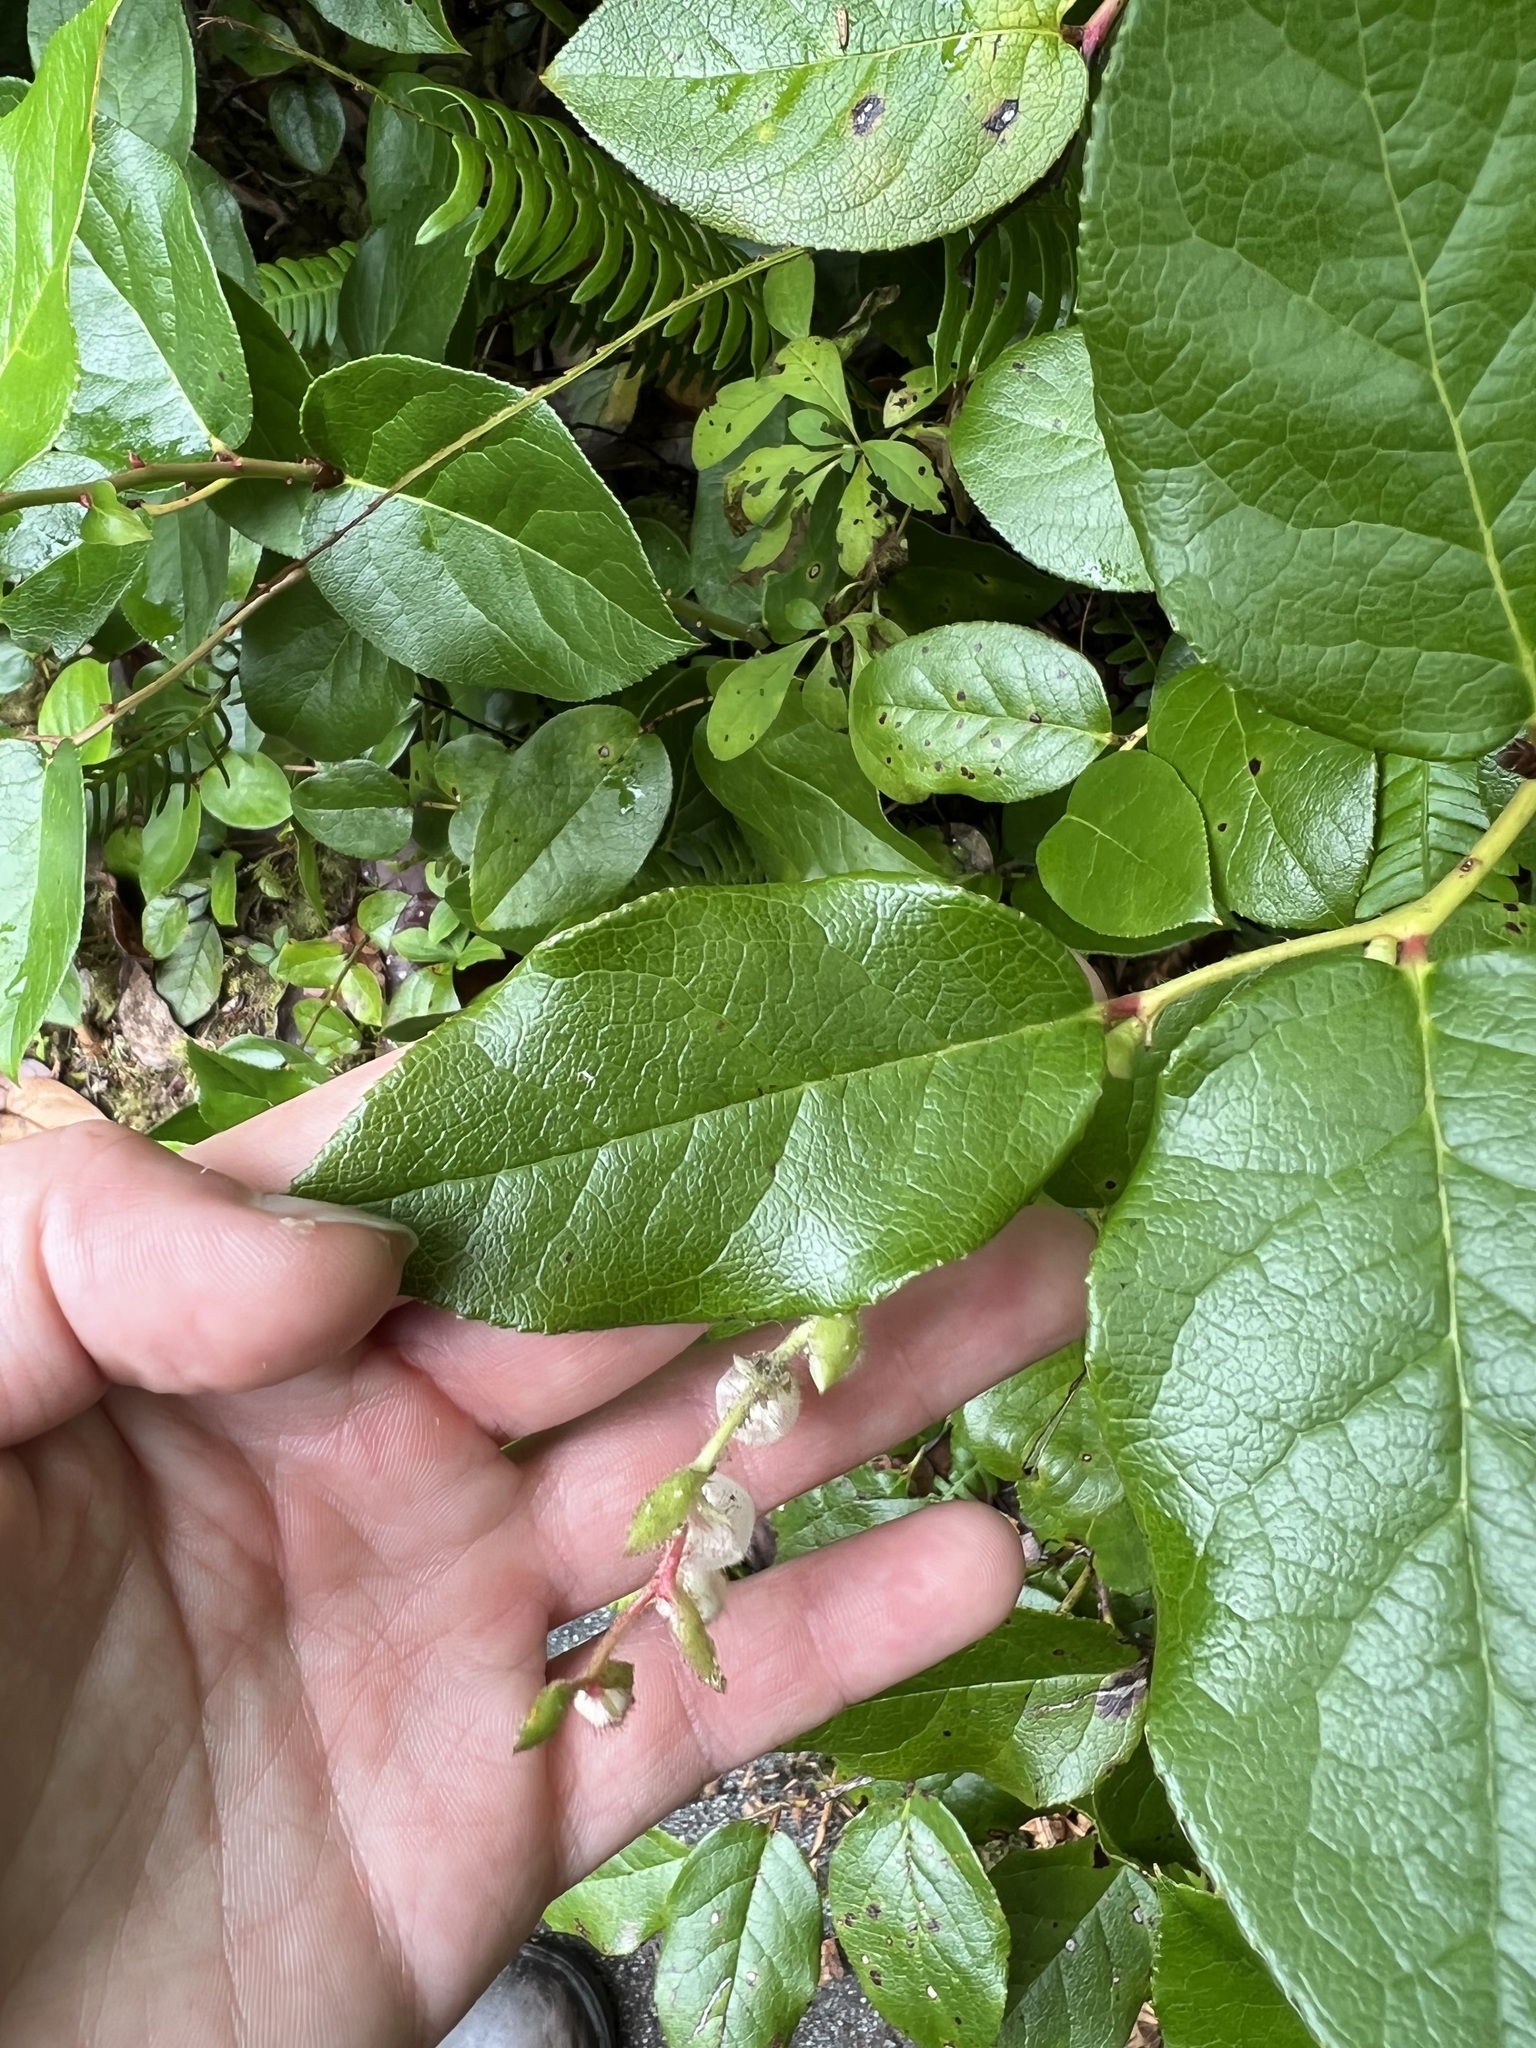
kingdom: Plantae
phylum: Tracheophyta
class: Magnoliopsida
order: Ericales
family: Ericaceae
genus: Gaultheria
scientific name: Gaultheria shallon
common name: Shallon
